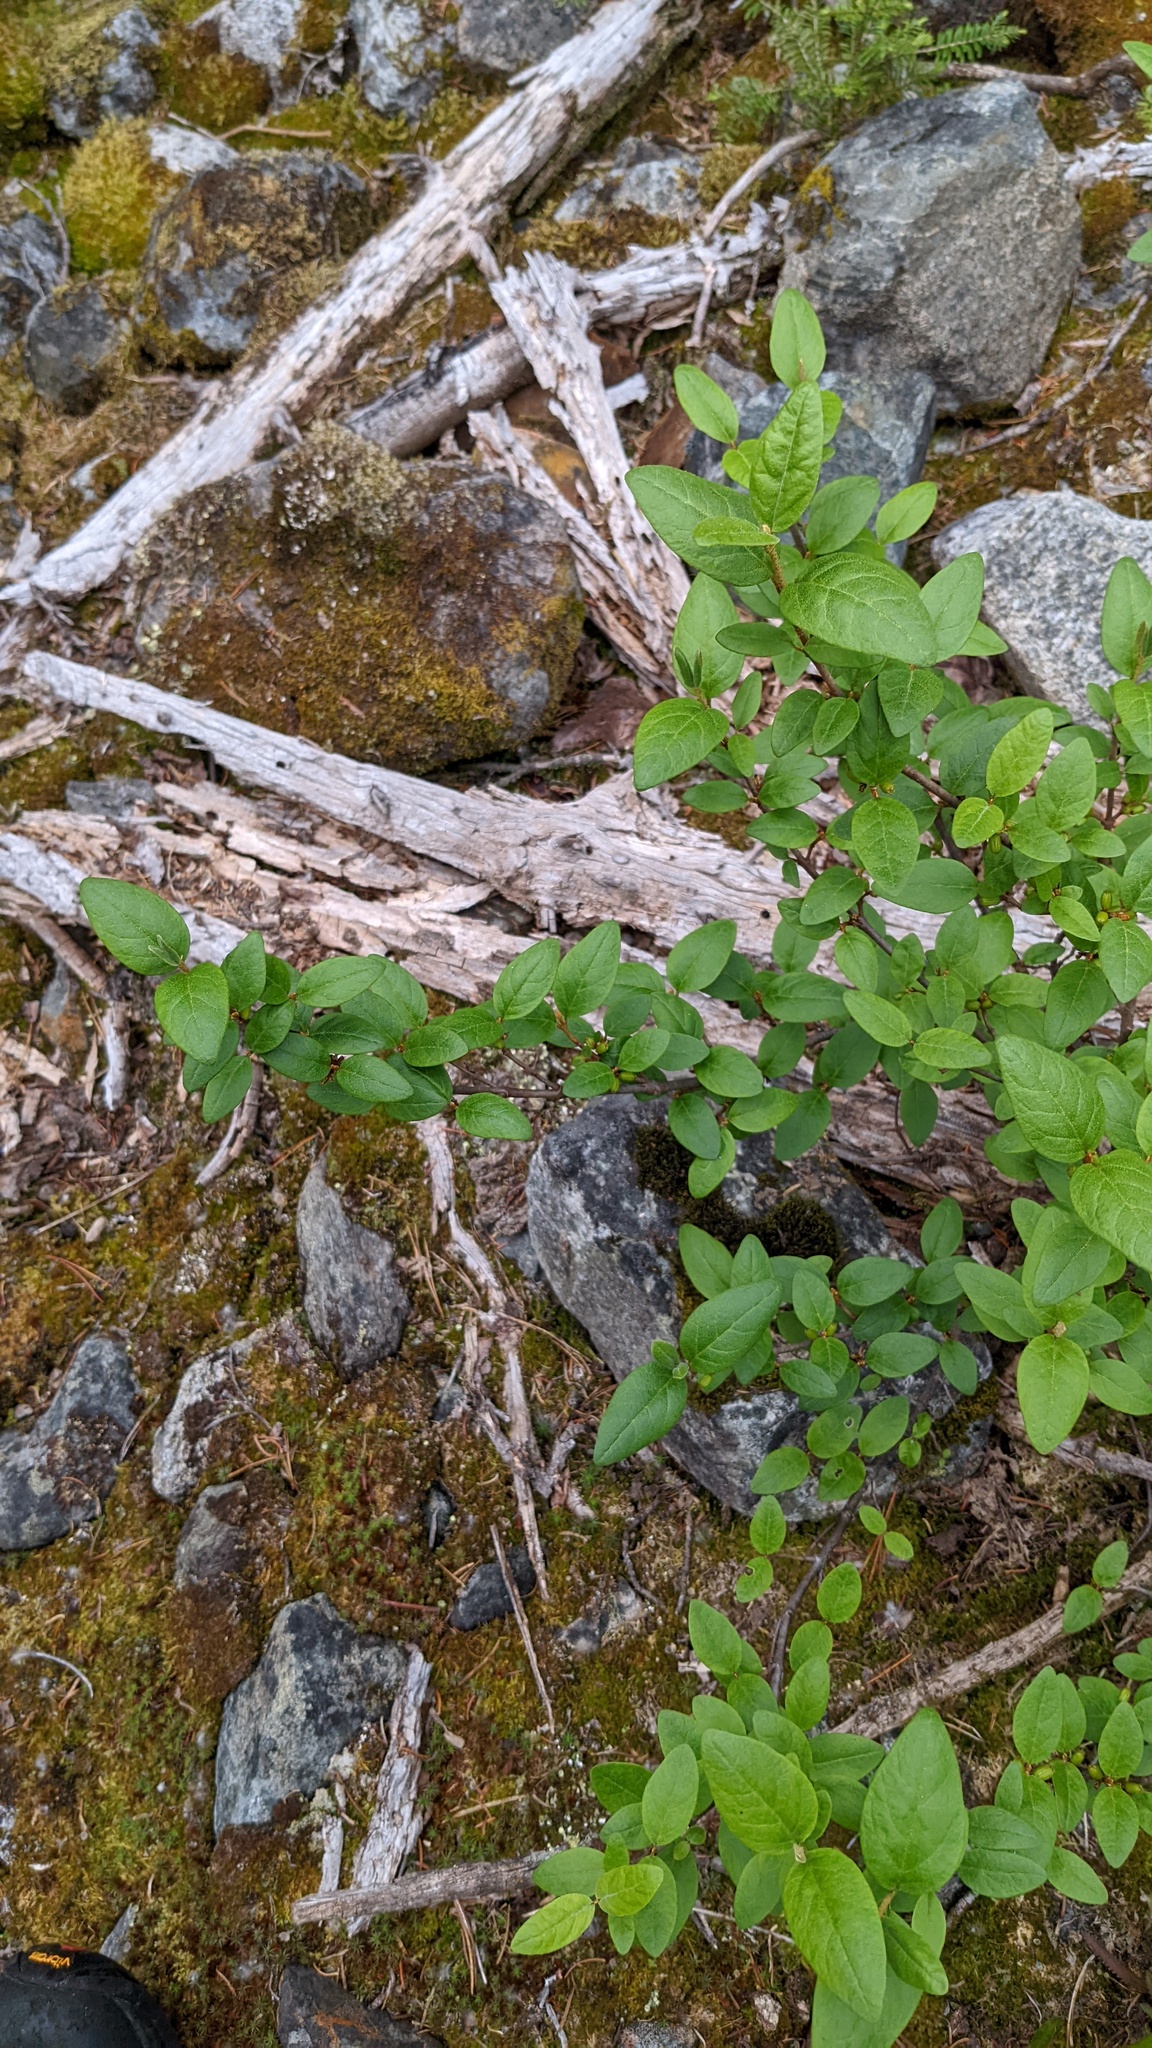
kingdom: Plantae
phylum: Tracheophyta
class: Magnoliopsida
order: Rosales
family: Elaeagnaceae
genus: Shepherdia
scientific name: Shepherdia canadensis
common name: Soapberry
